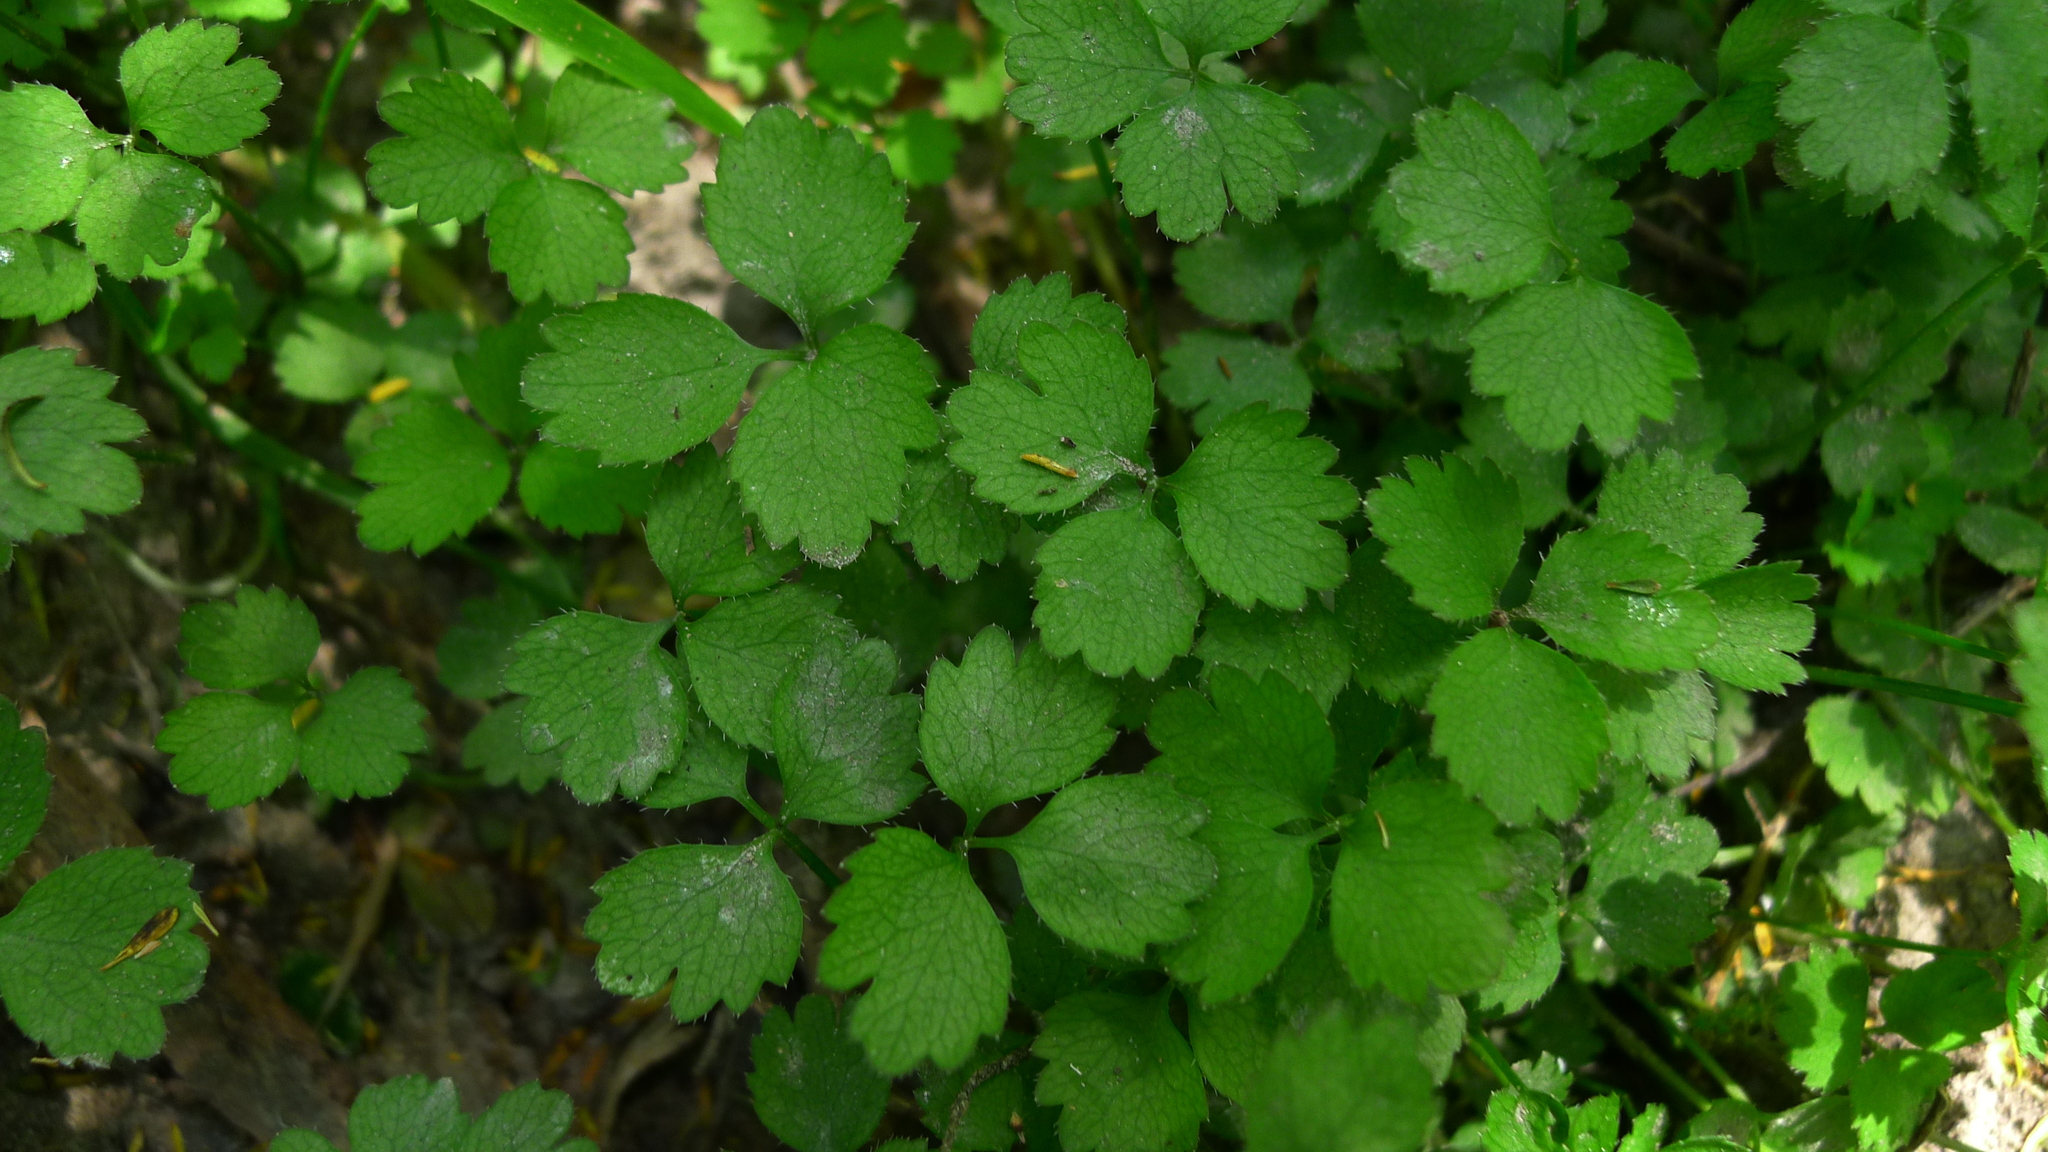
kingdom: Plantae
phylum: Tracheophyta
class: Magnoliopsida
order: Apiales
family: Apiaceae
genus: Azorella
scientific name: Azorella hookeri
